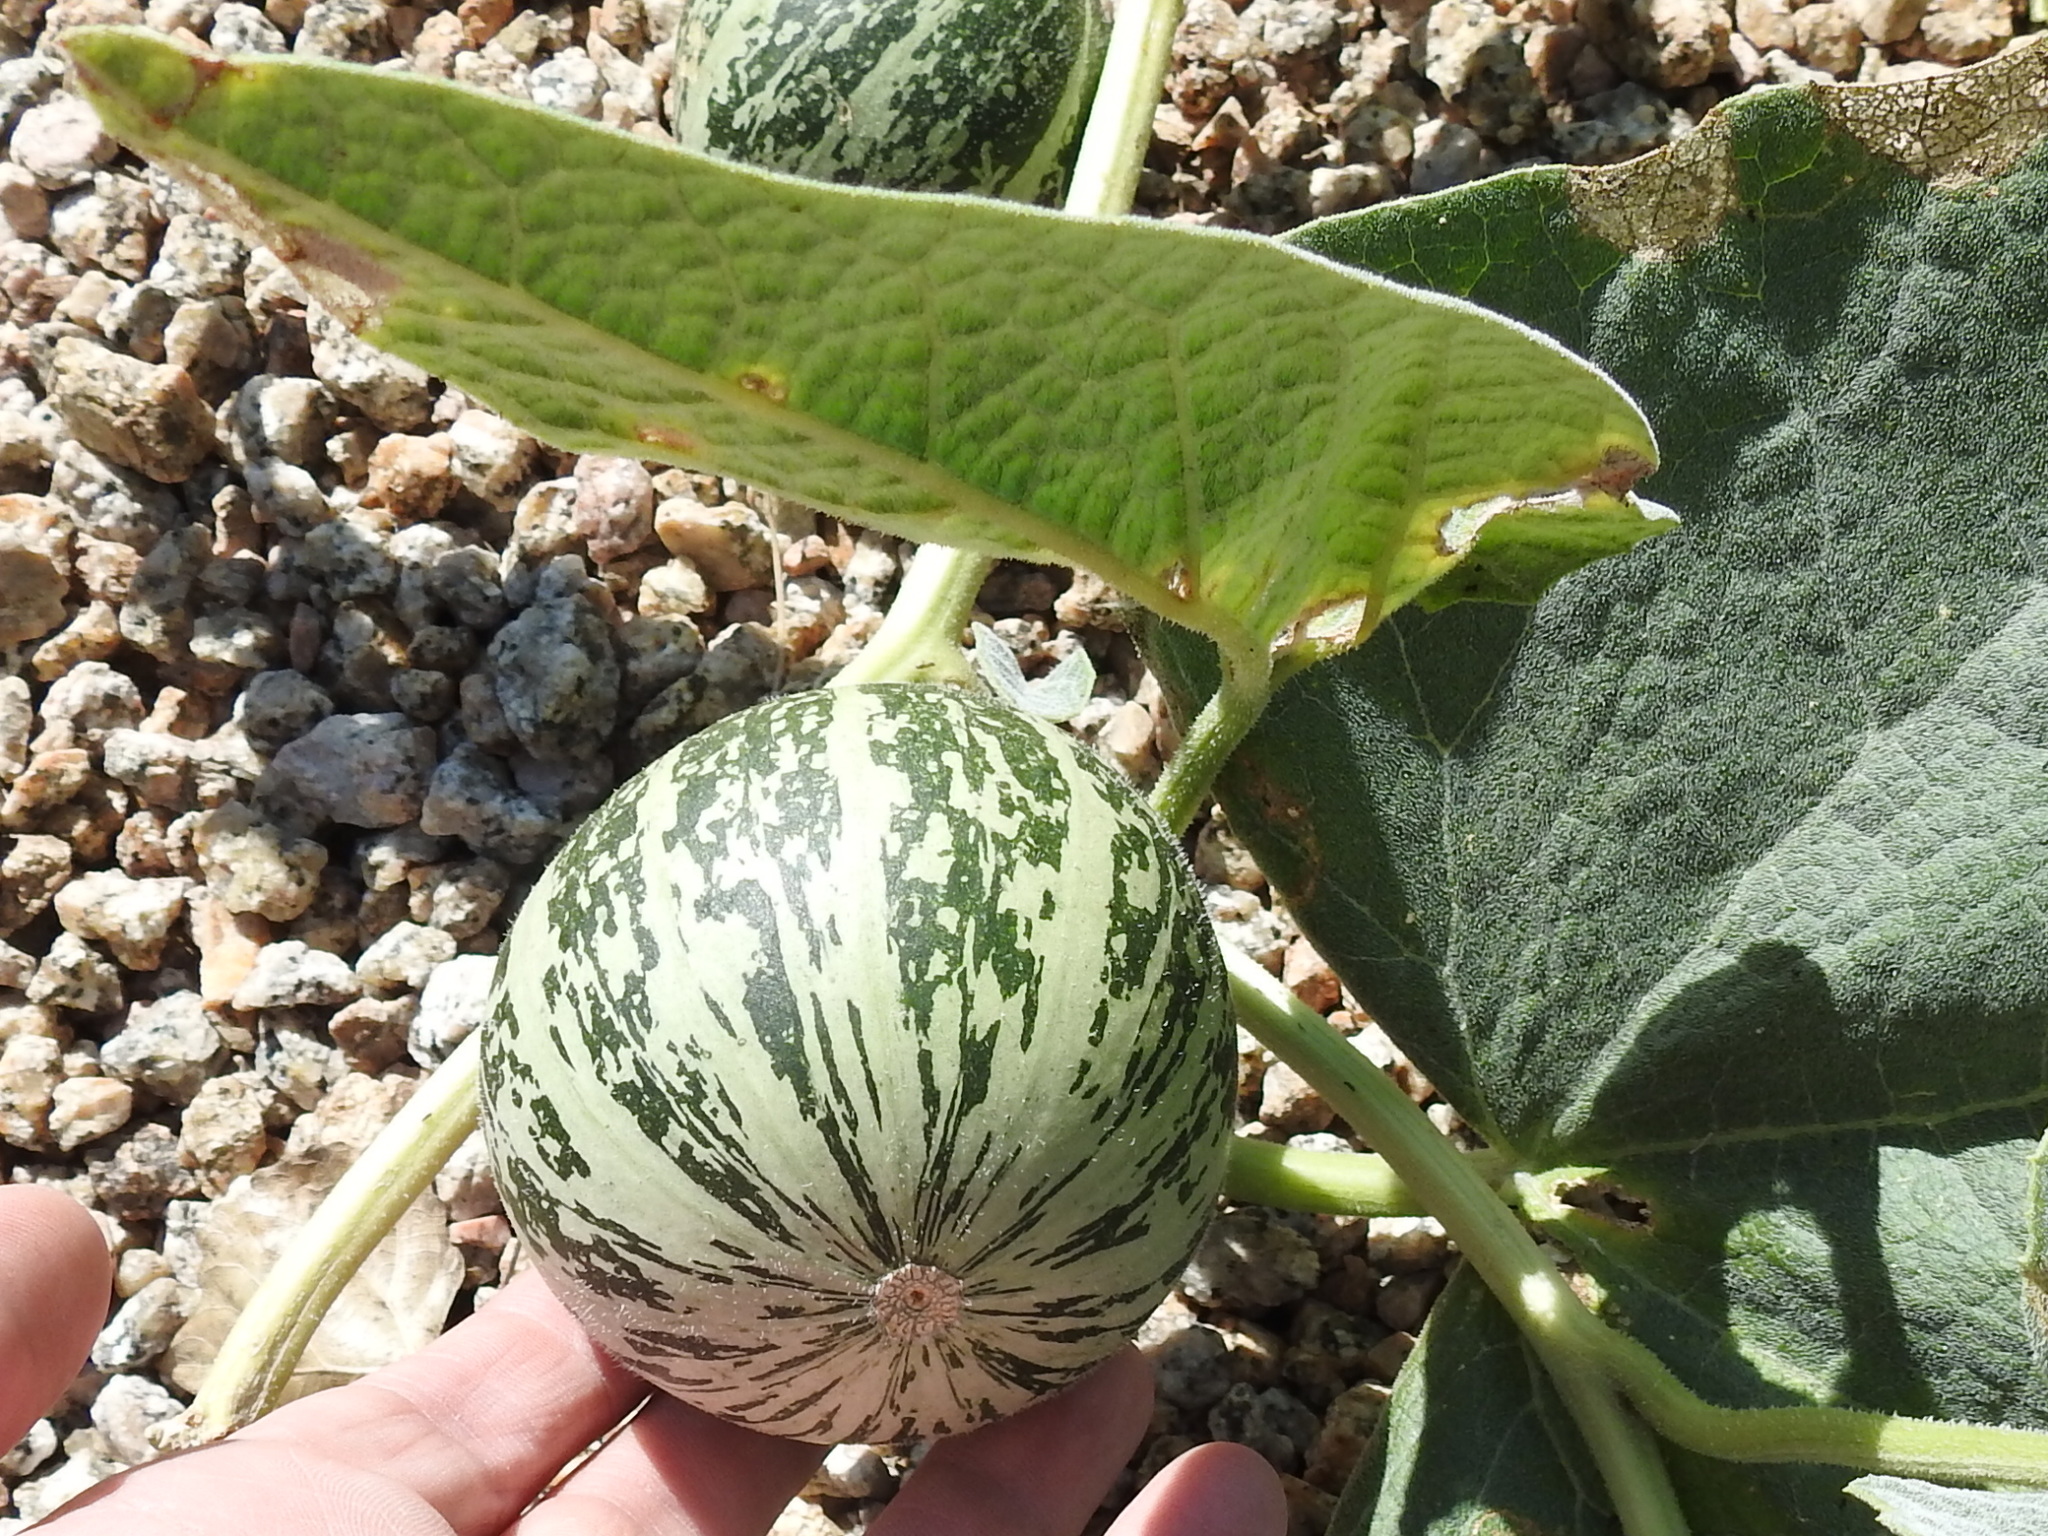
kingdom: Plantae
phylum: Tracheophyta
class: Magnoliopsida
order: Cucurbitales
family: Cucurbitaceae
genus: Cucurbita
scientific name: Cucurbita foetidissima
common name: Buffalo gourd
